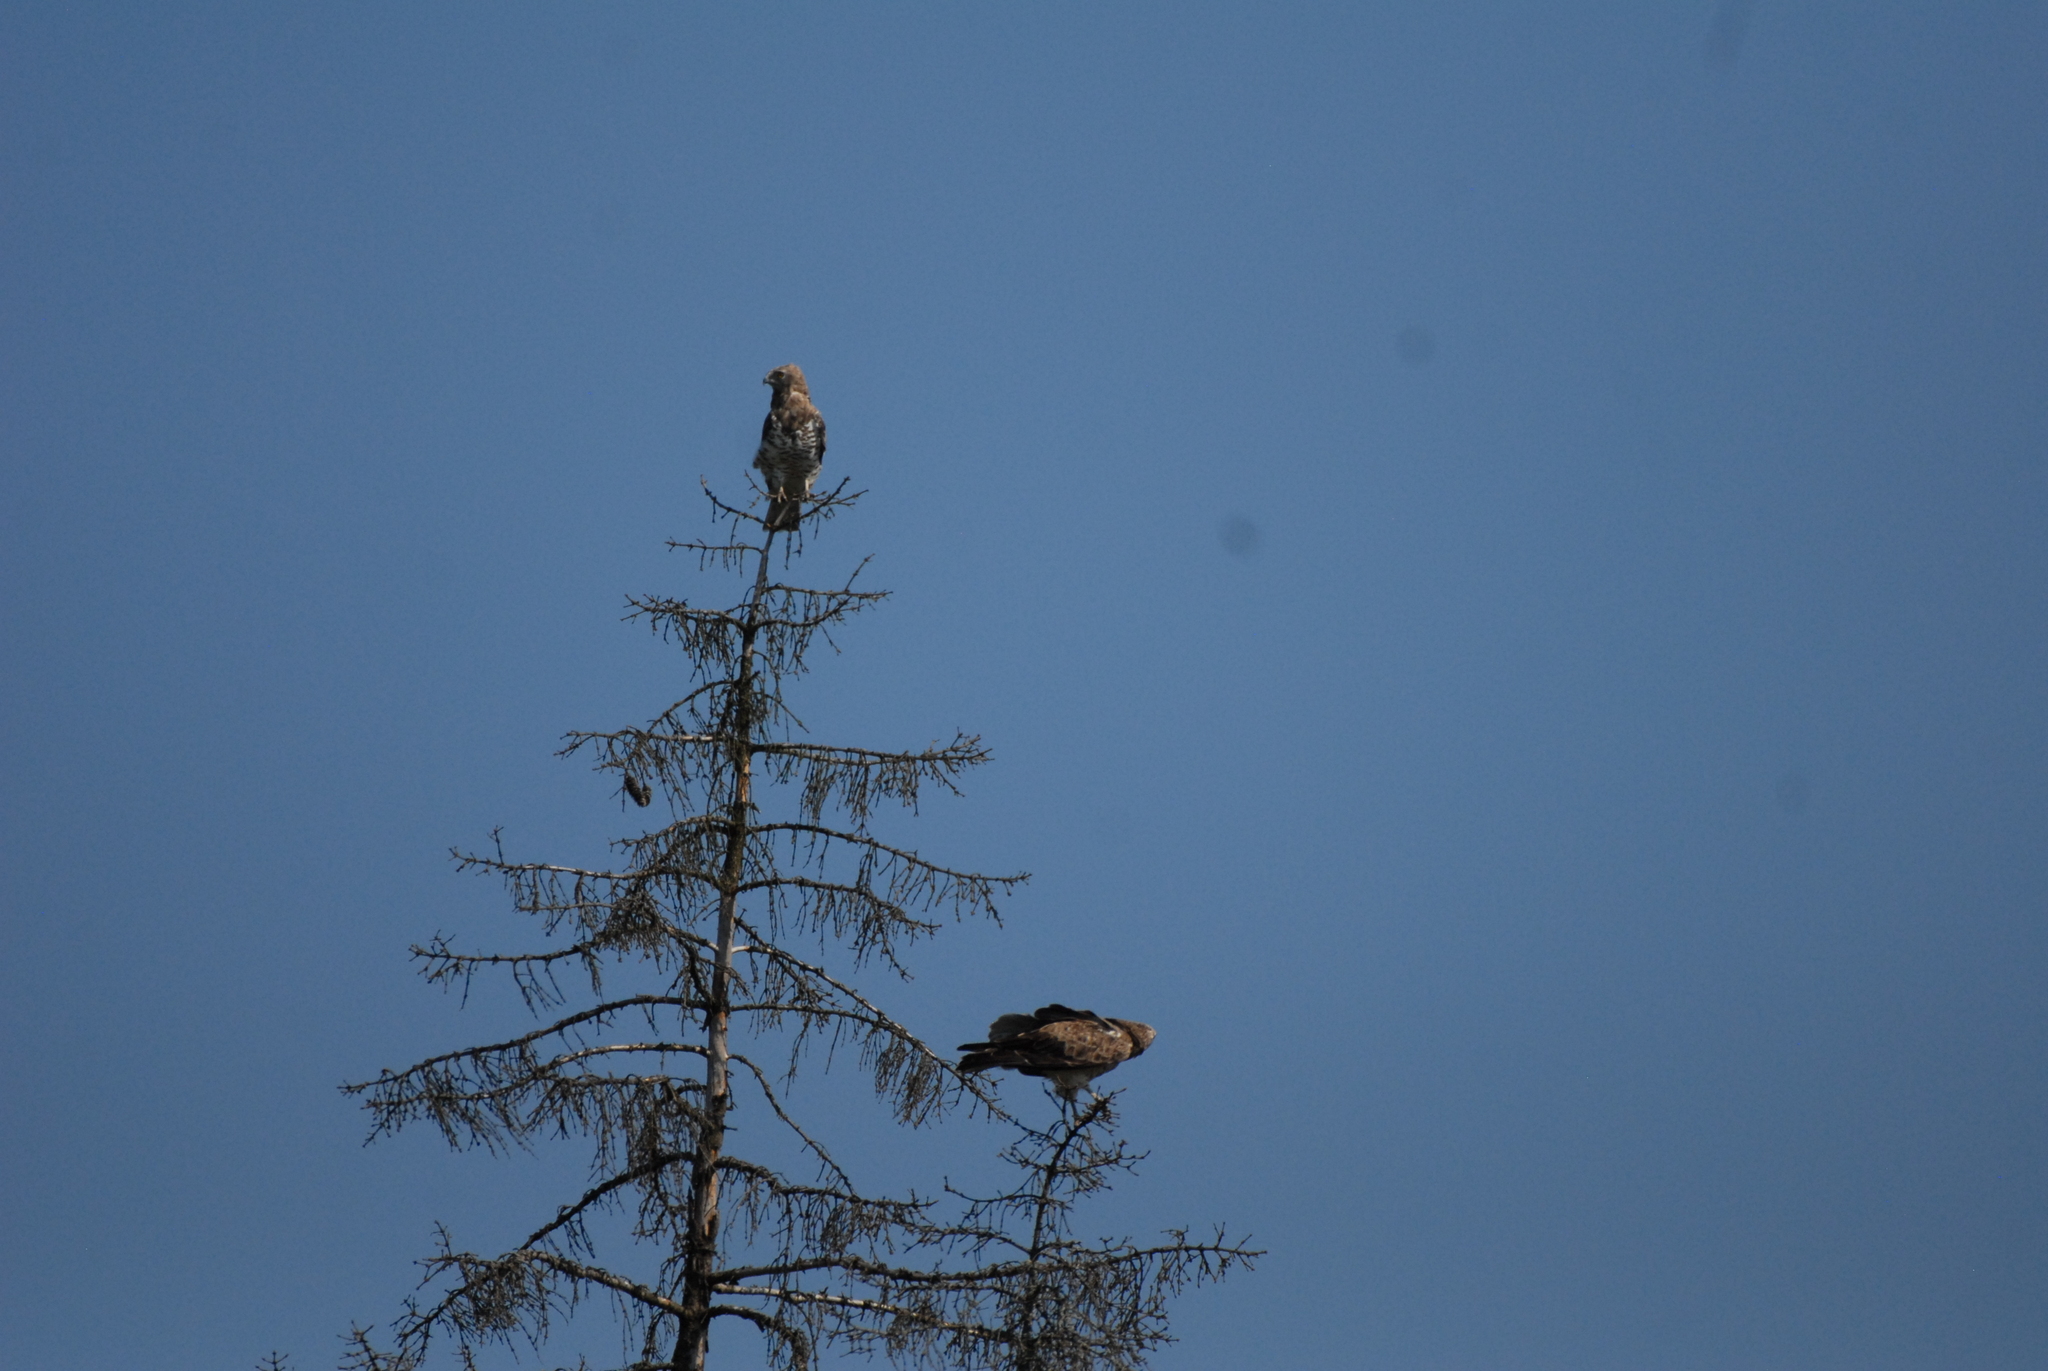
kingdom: Animalia
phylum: Chordata
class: Aves
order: Accipitriformes
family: Accipitridae
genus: Circaetus
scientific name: Circaetus gallicus
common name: Short-toed snake eagle
